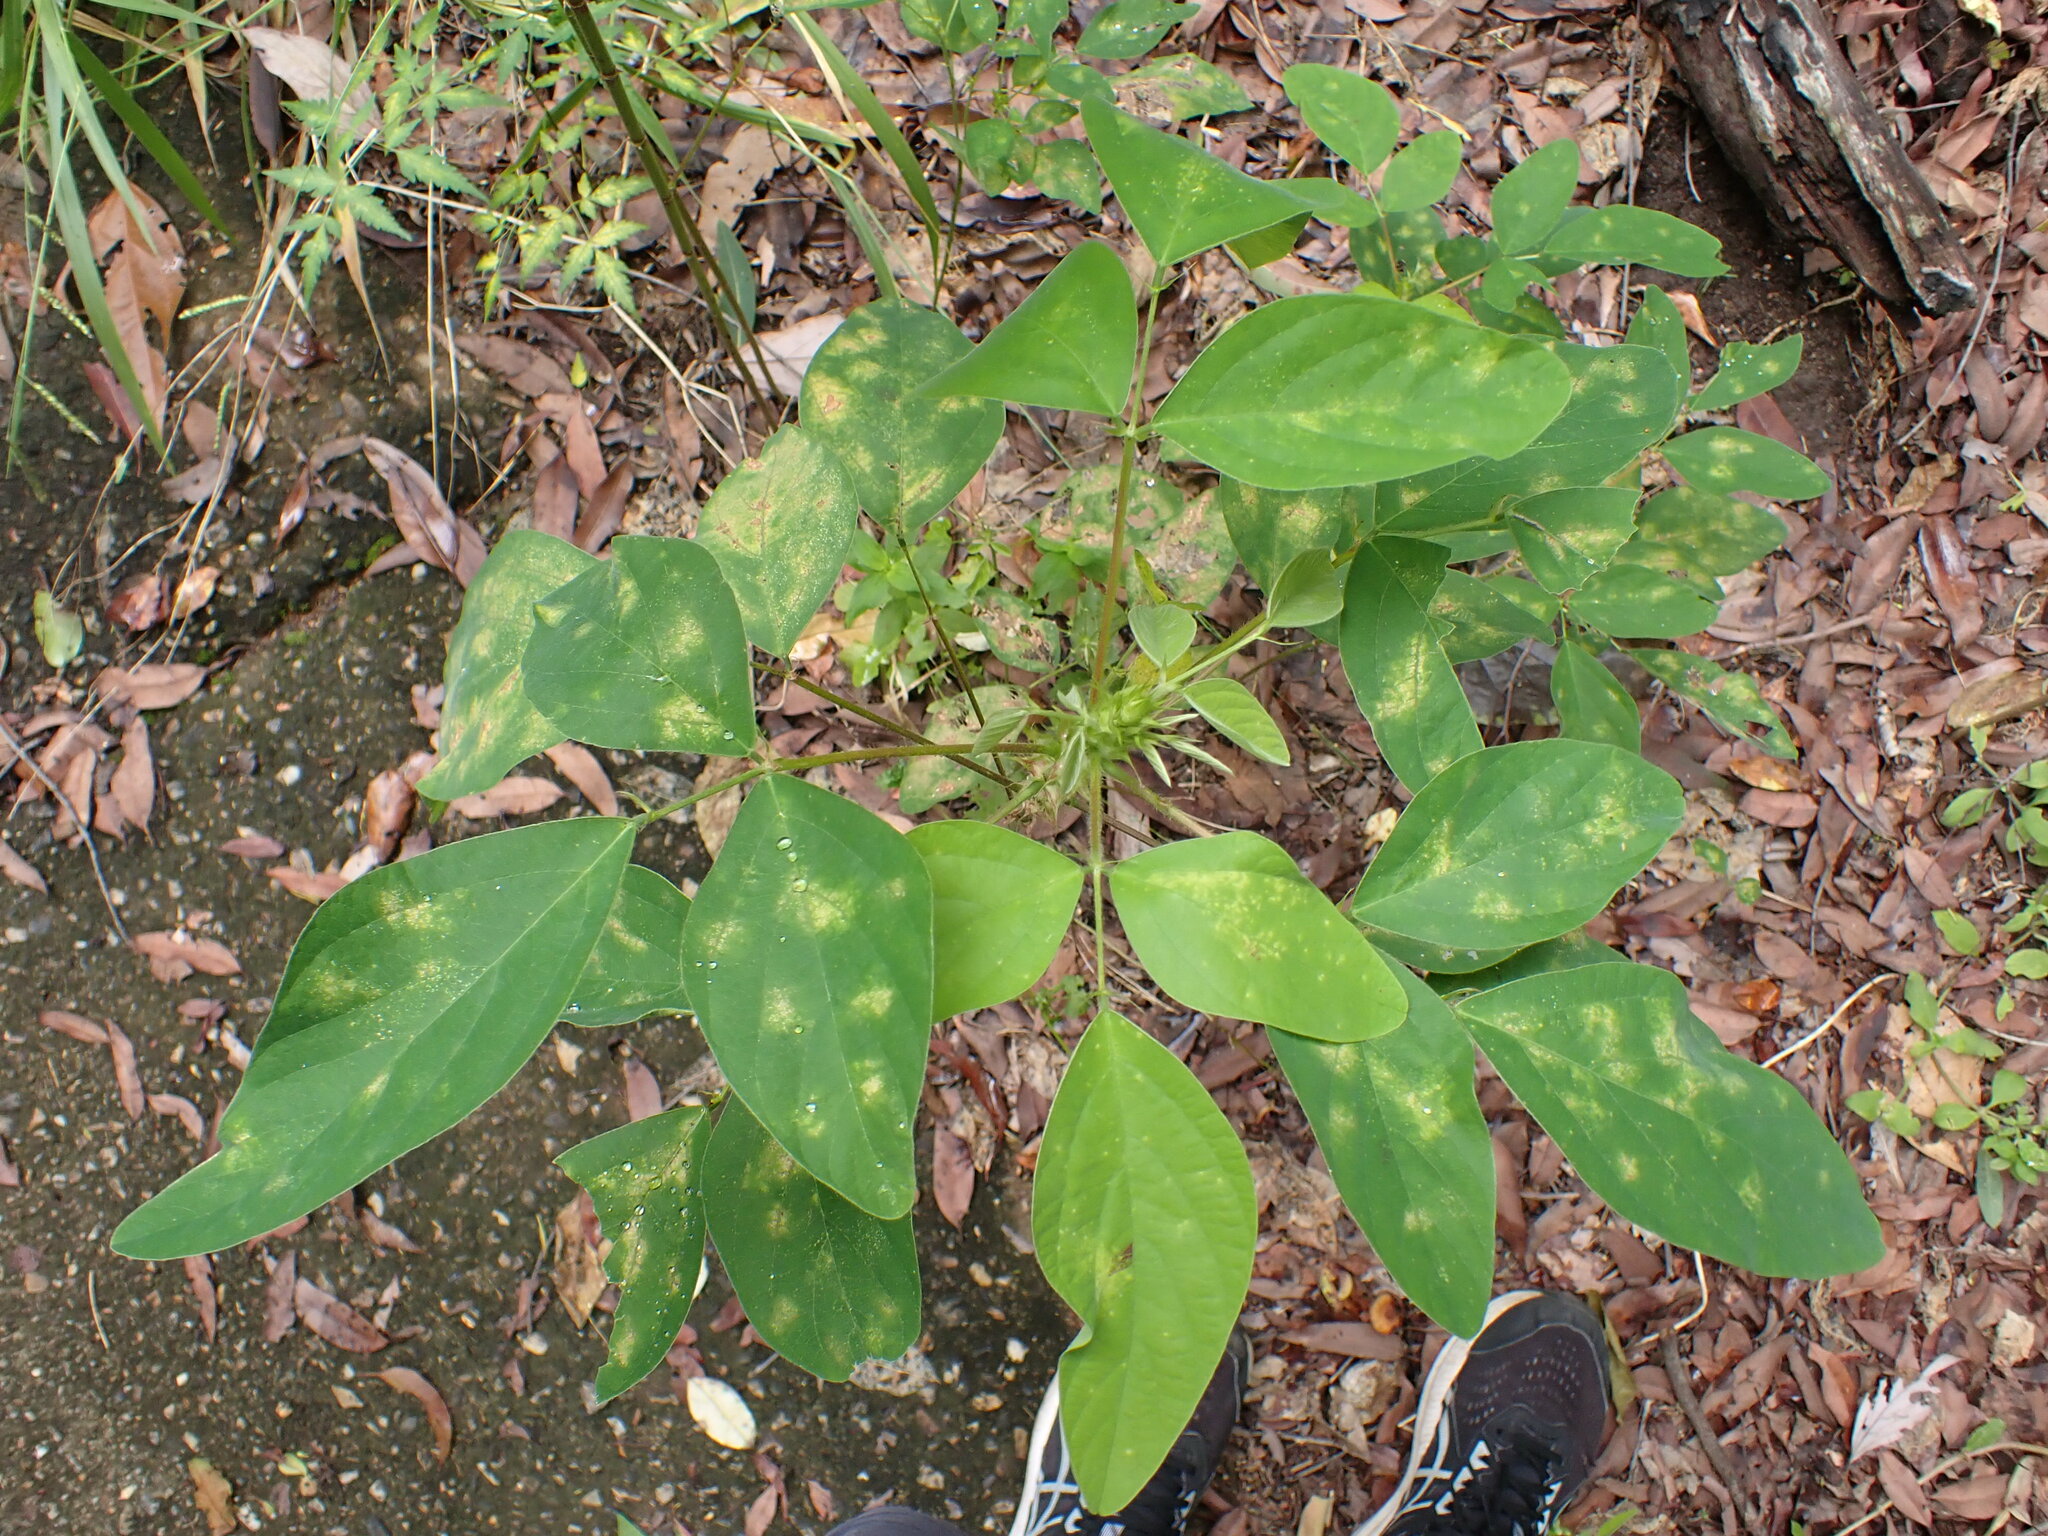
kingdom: Plantae
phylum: Tracheophyta
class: Magnoliopsida
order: Fabales
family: Fabaceae
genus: Desmodium
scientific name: Desmodium tortuosum
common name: Dixie ticktrefoil
